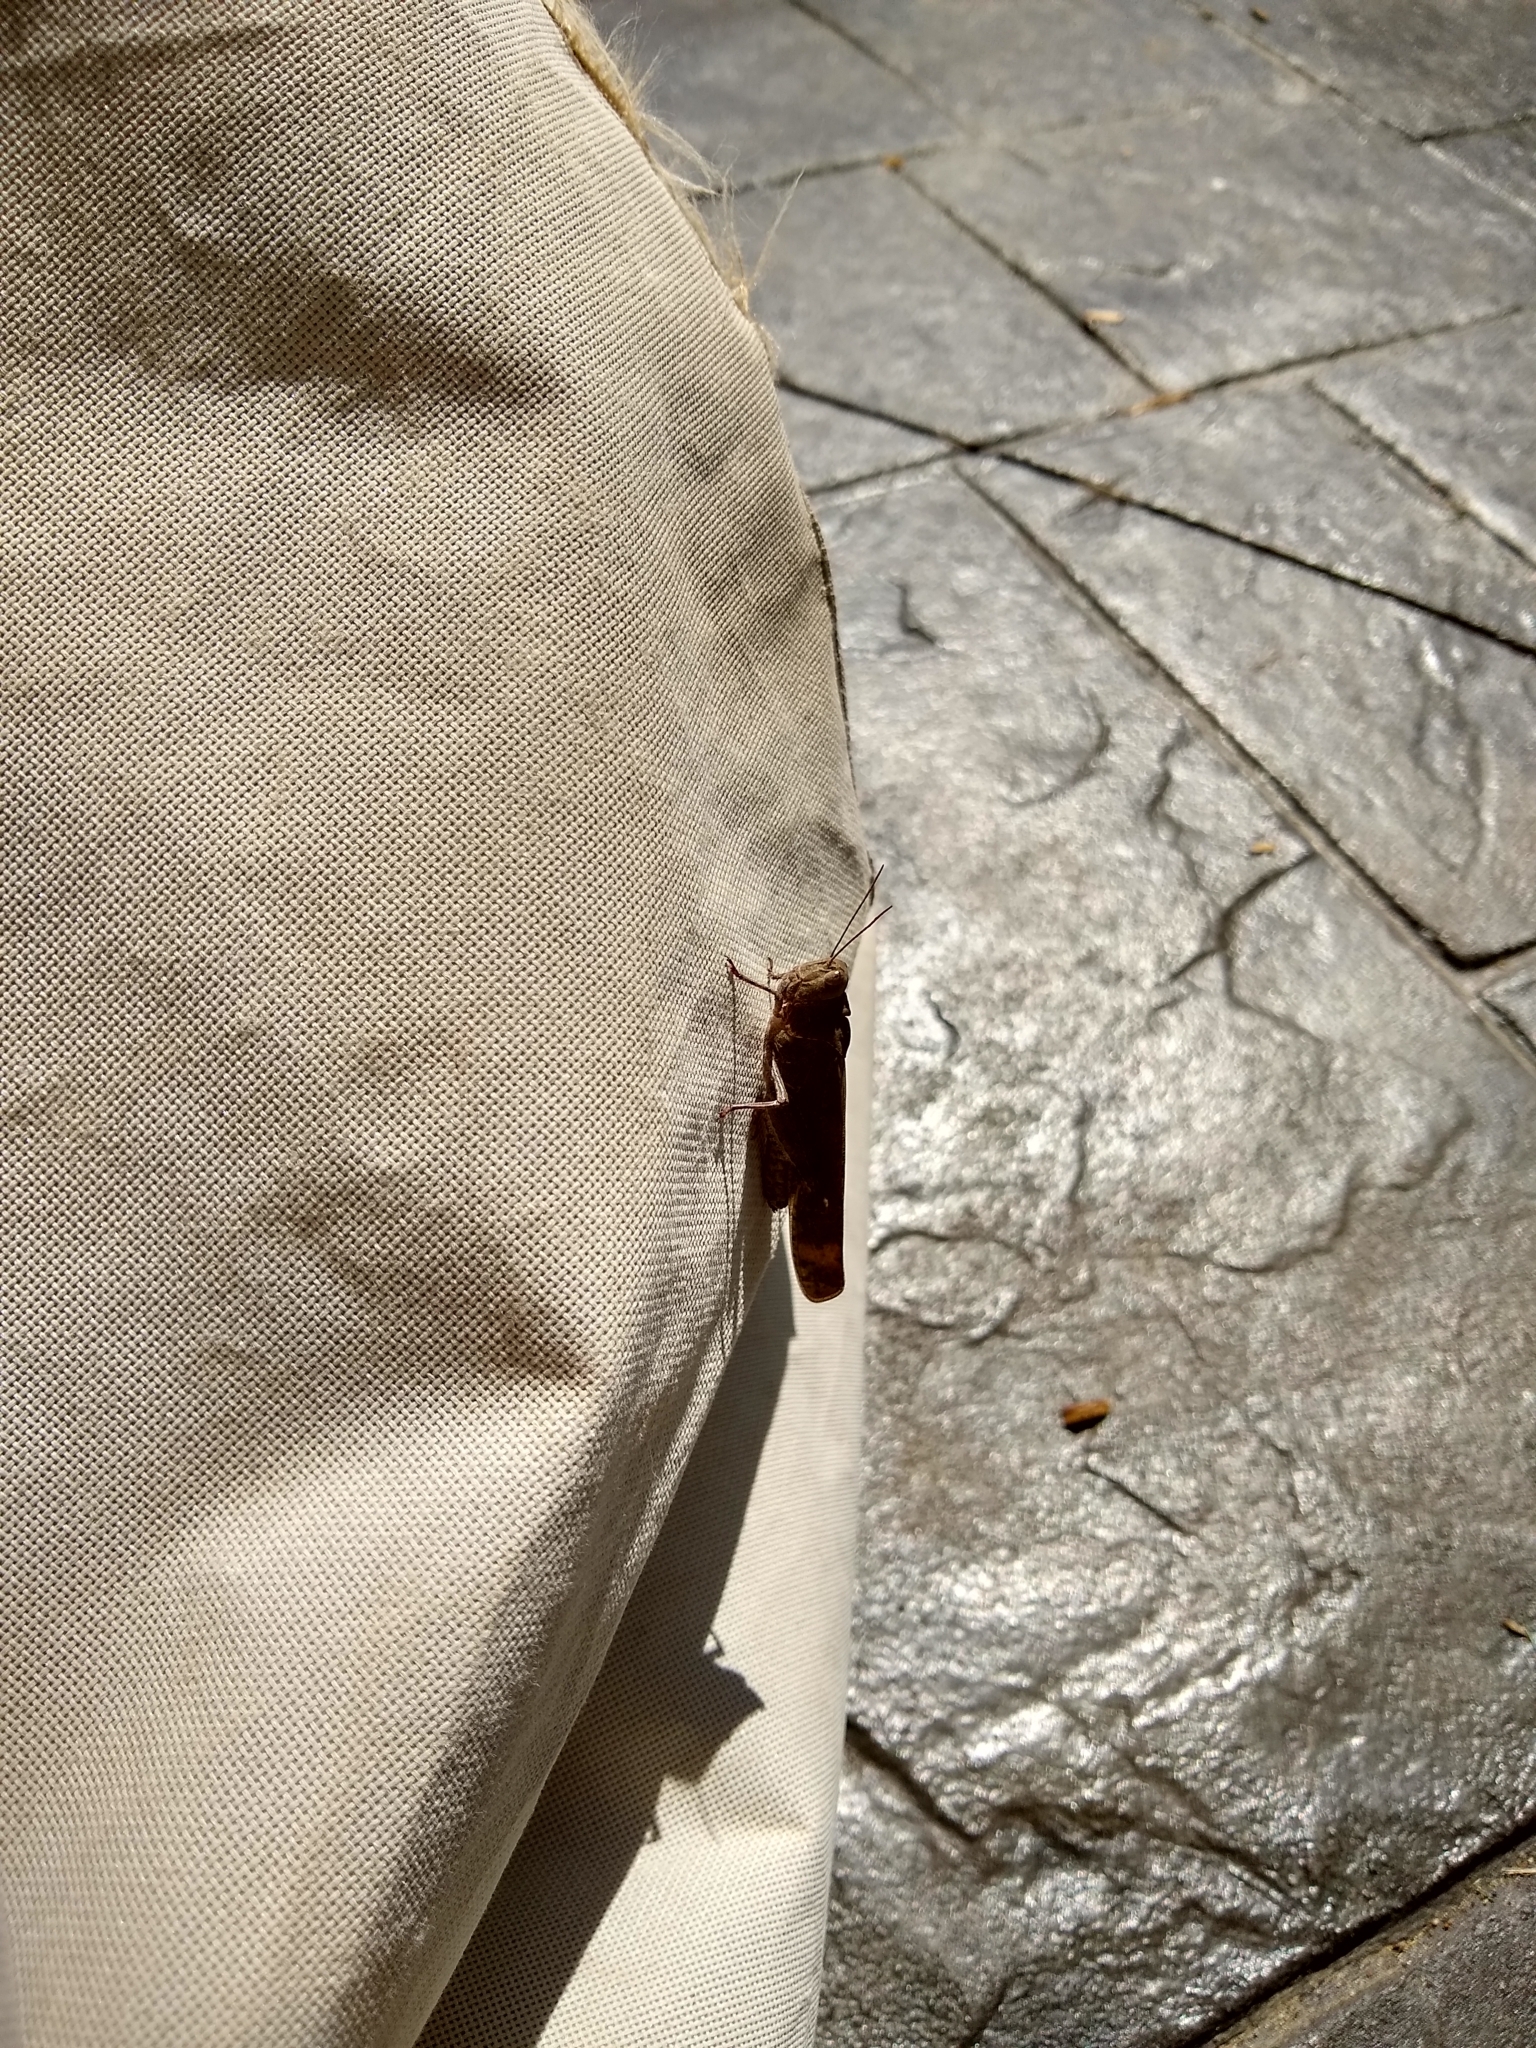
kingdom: Animalia
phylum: Arthropoda
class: Insecta
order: Orthoptera
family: Acrididae
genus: Dissosteira
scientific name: Dissosteira carolina
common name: Carolina grasshopper
